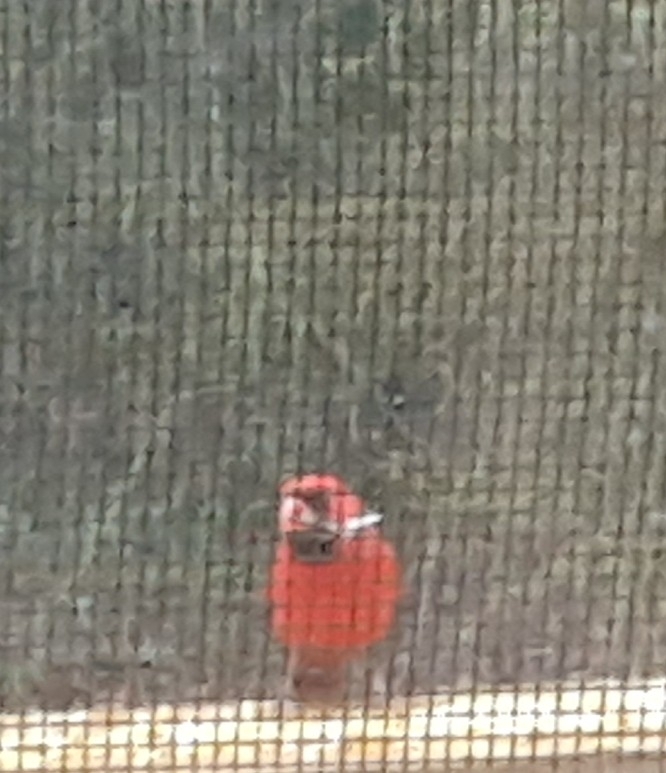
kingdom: Animalia
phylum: Chordata
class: Aves
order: Passeriformes
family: Cardinalidae
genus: Cardinalis
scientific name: Cardinalis cardinalis
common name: Northern cardinal
